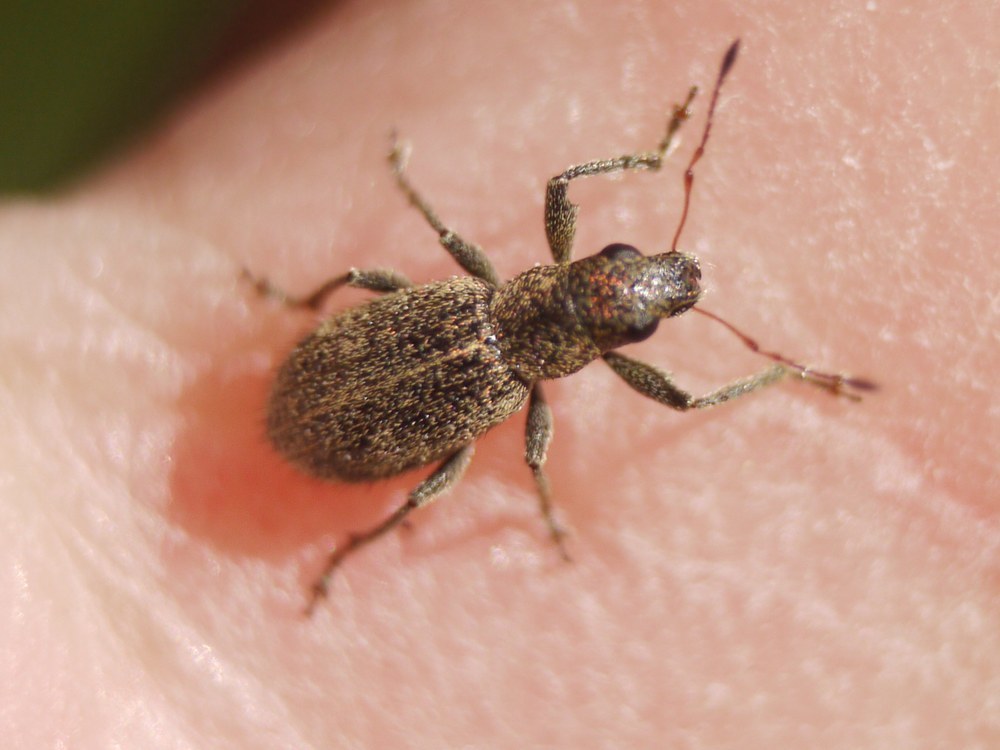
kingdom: Animalia
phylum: Arthropoda
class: Insecta
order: Coleoptera
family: Curculionidae
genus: Polydrusus
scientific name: Polydrusus inustus
